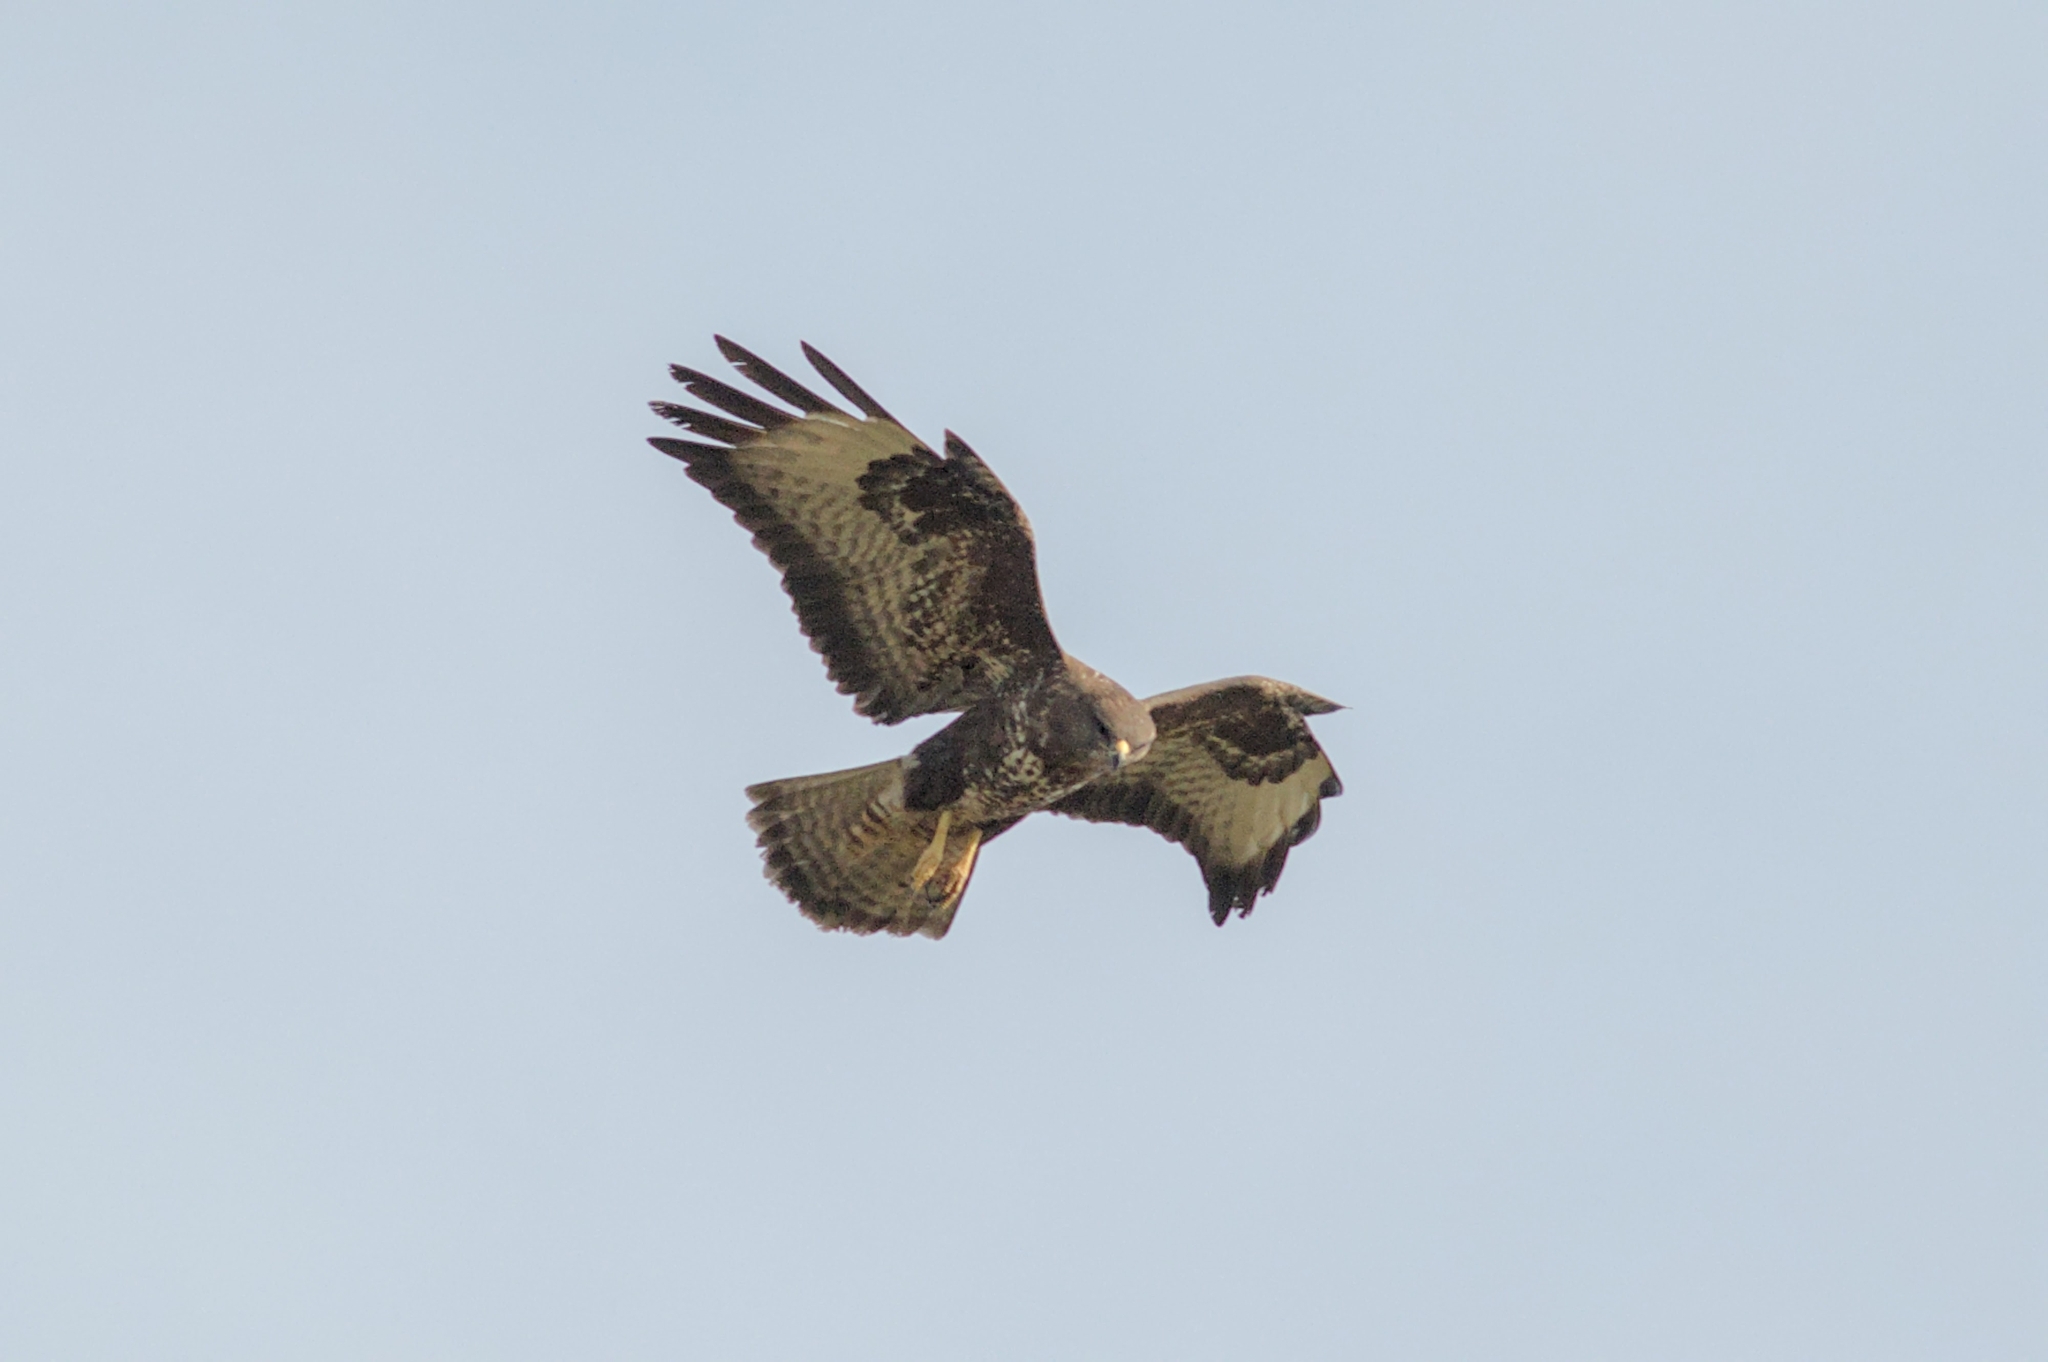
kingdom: Animalia
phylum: Chordata
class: Aves
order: Accipitriformes
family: Accipitridae
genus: Buteo
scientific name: Buteo buteo
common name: Common buzzard
